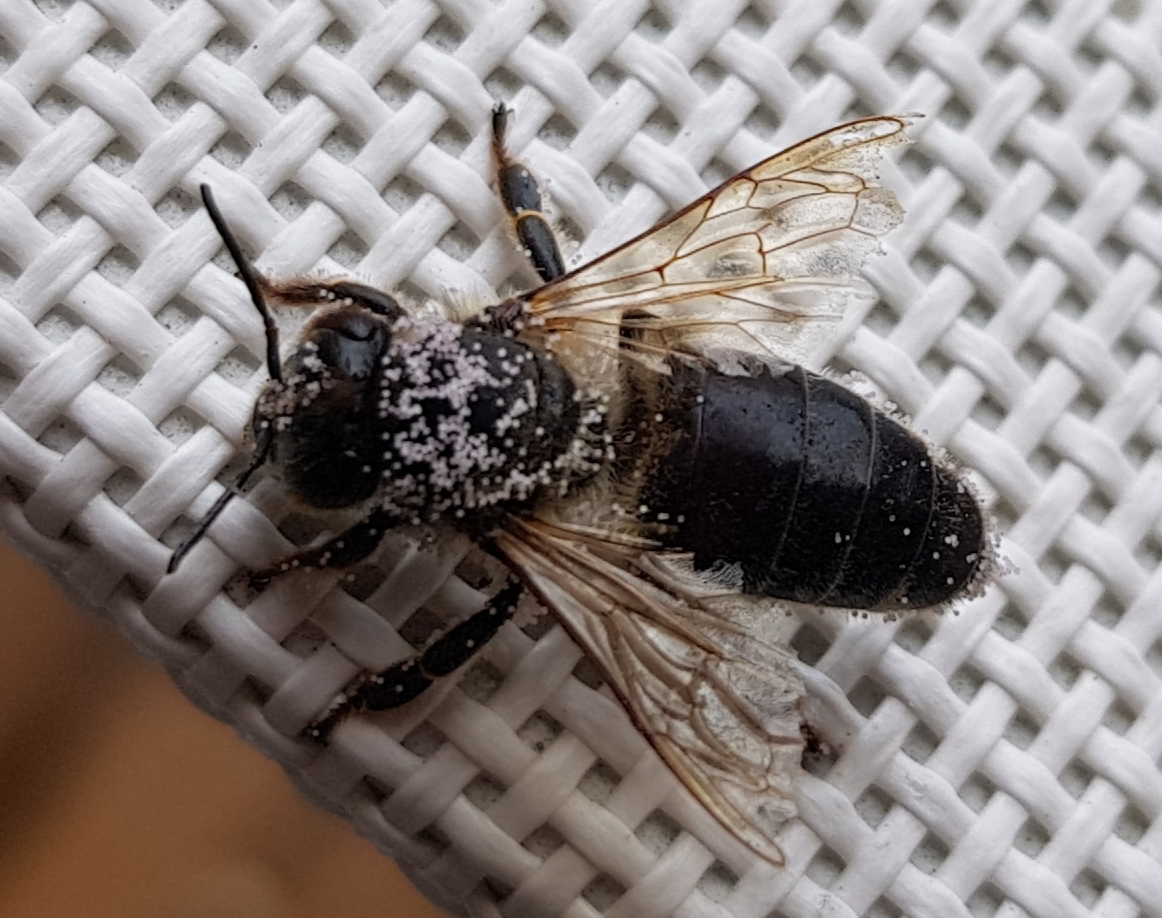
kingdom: Animalia
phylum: Arthropoda
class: Insecta
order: Hymenoptera
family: Apidae
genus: Apis
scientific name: Apis mellifera
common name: Honey bee
